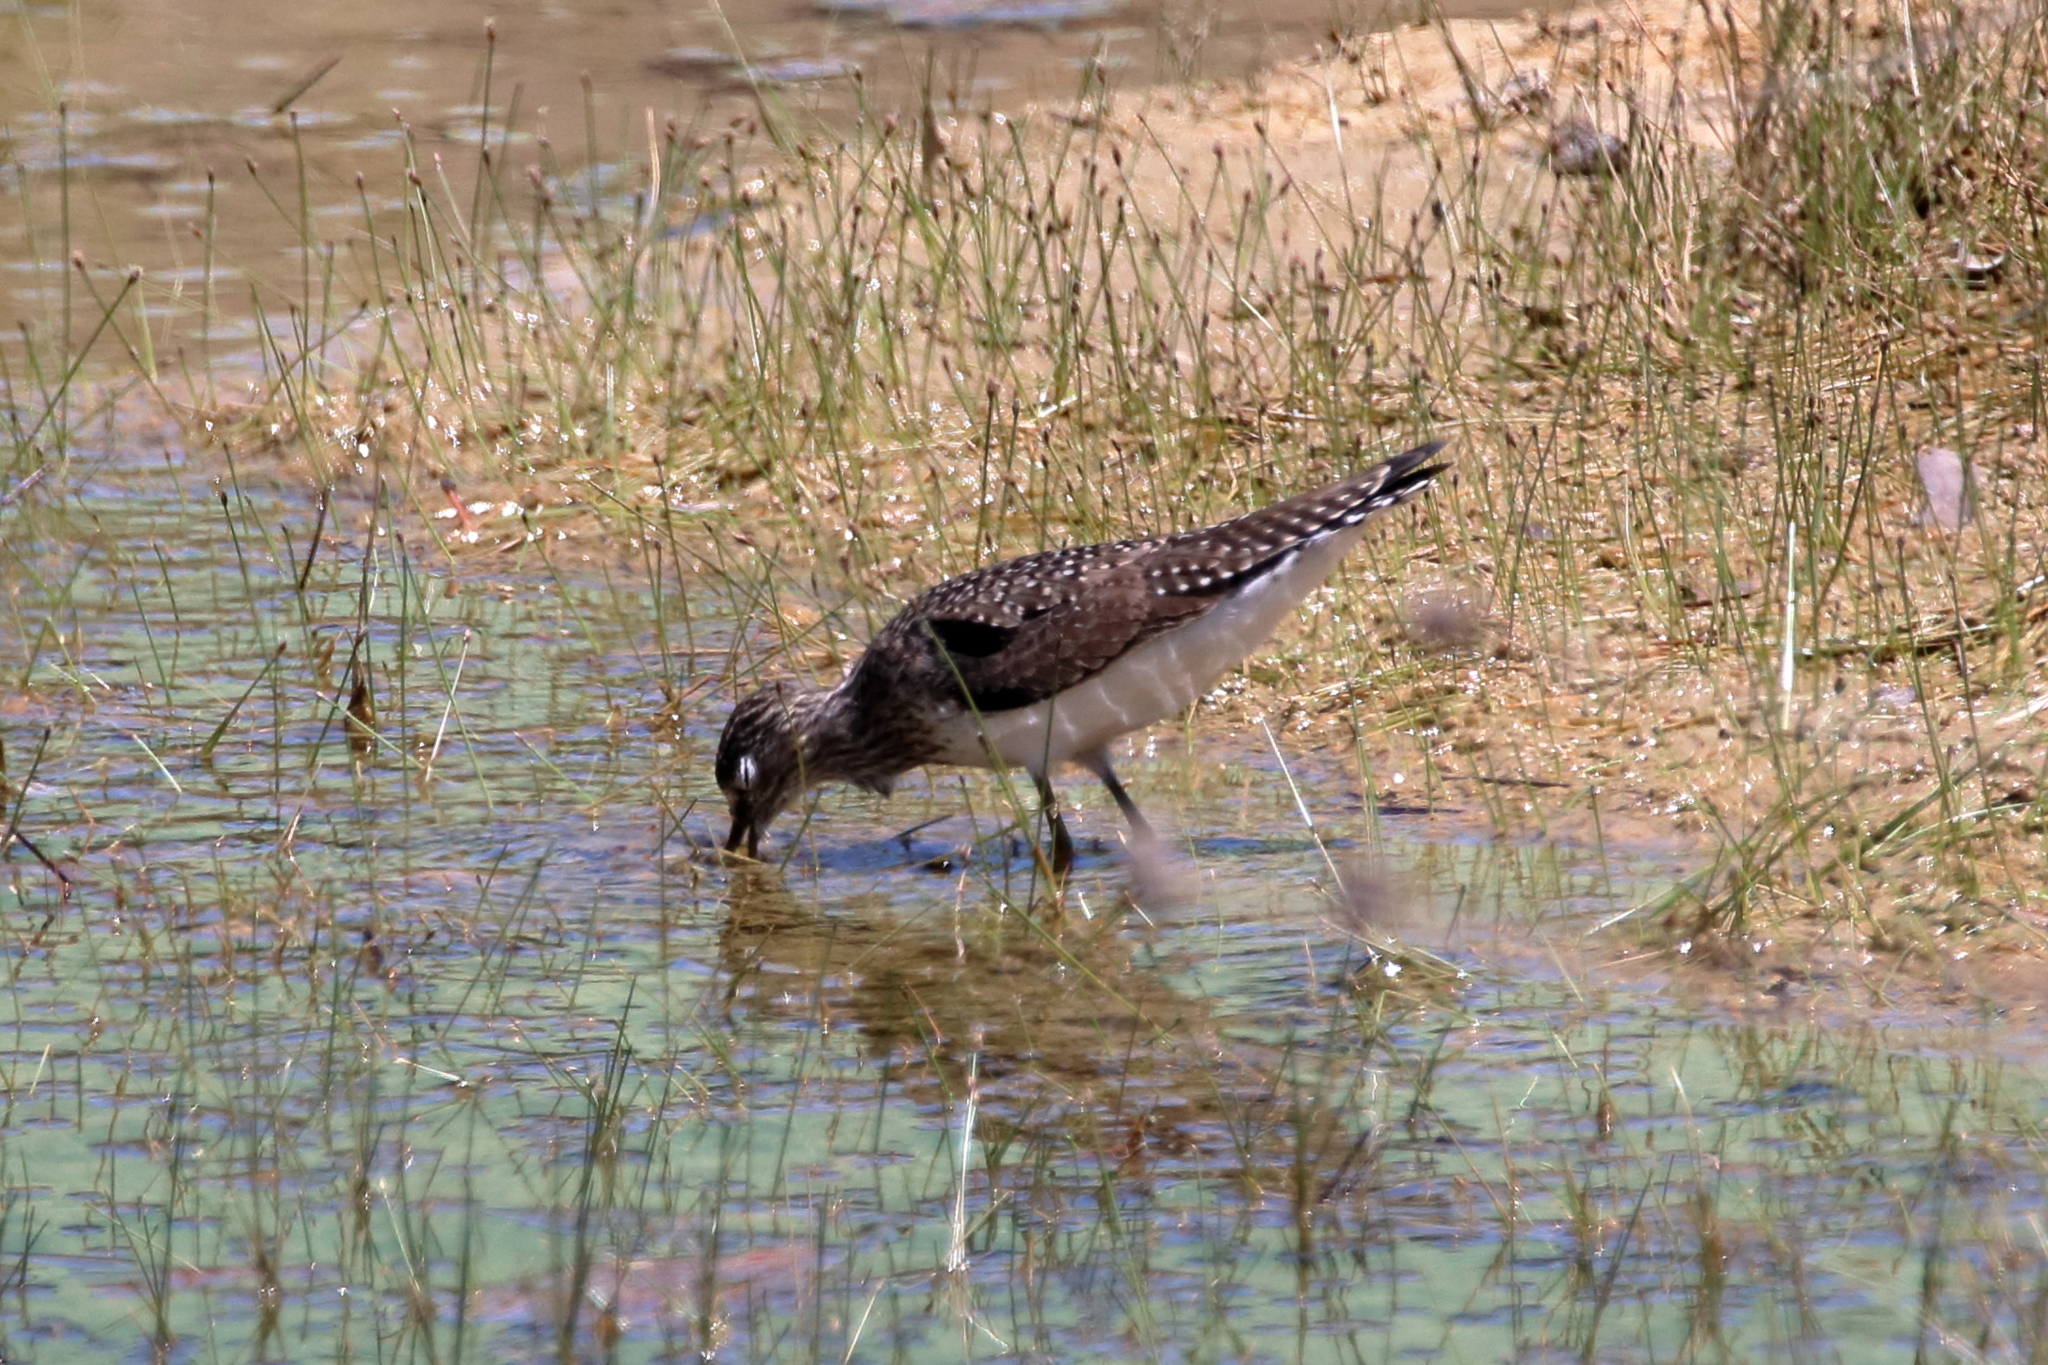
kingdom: Animalia
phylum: Chordata
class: Aves
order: Charadriiformes
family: Scolopacidae
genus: Tringa
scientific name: Tringa solitaria
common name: Solitary sandpiper
